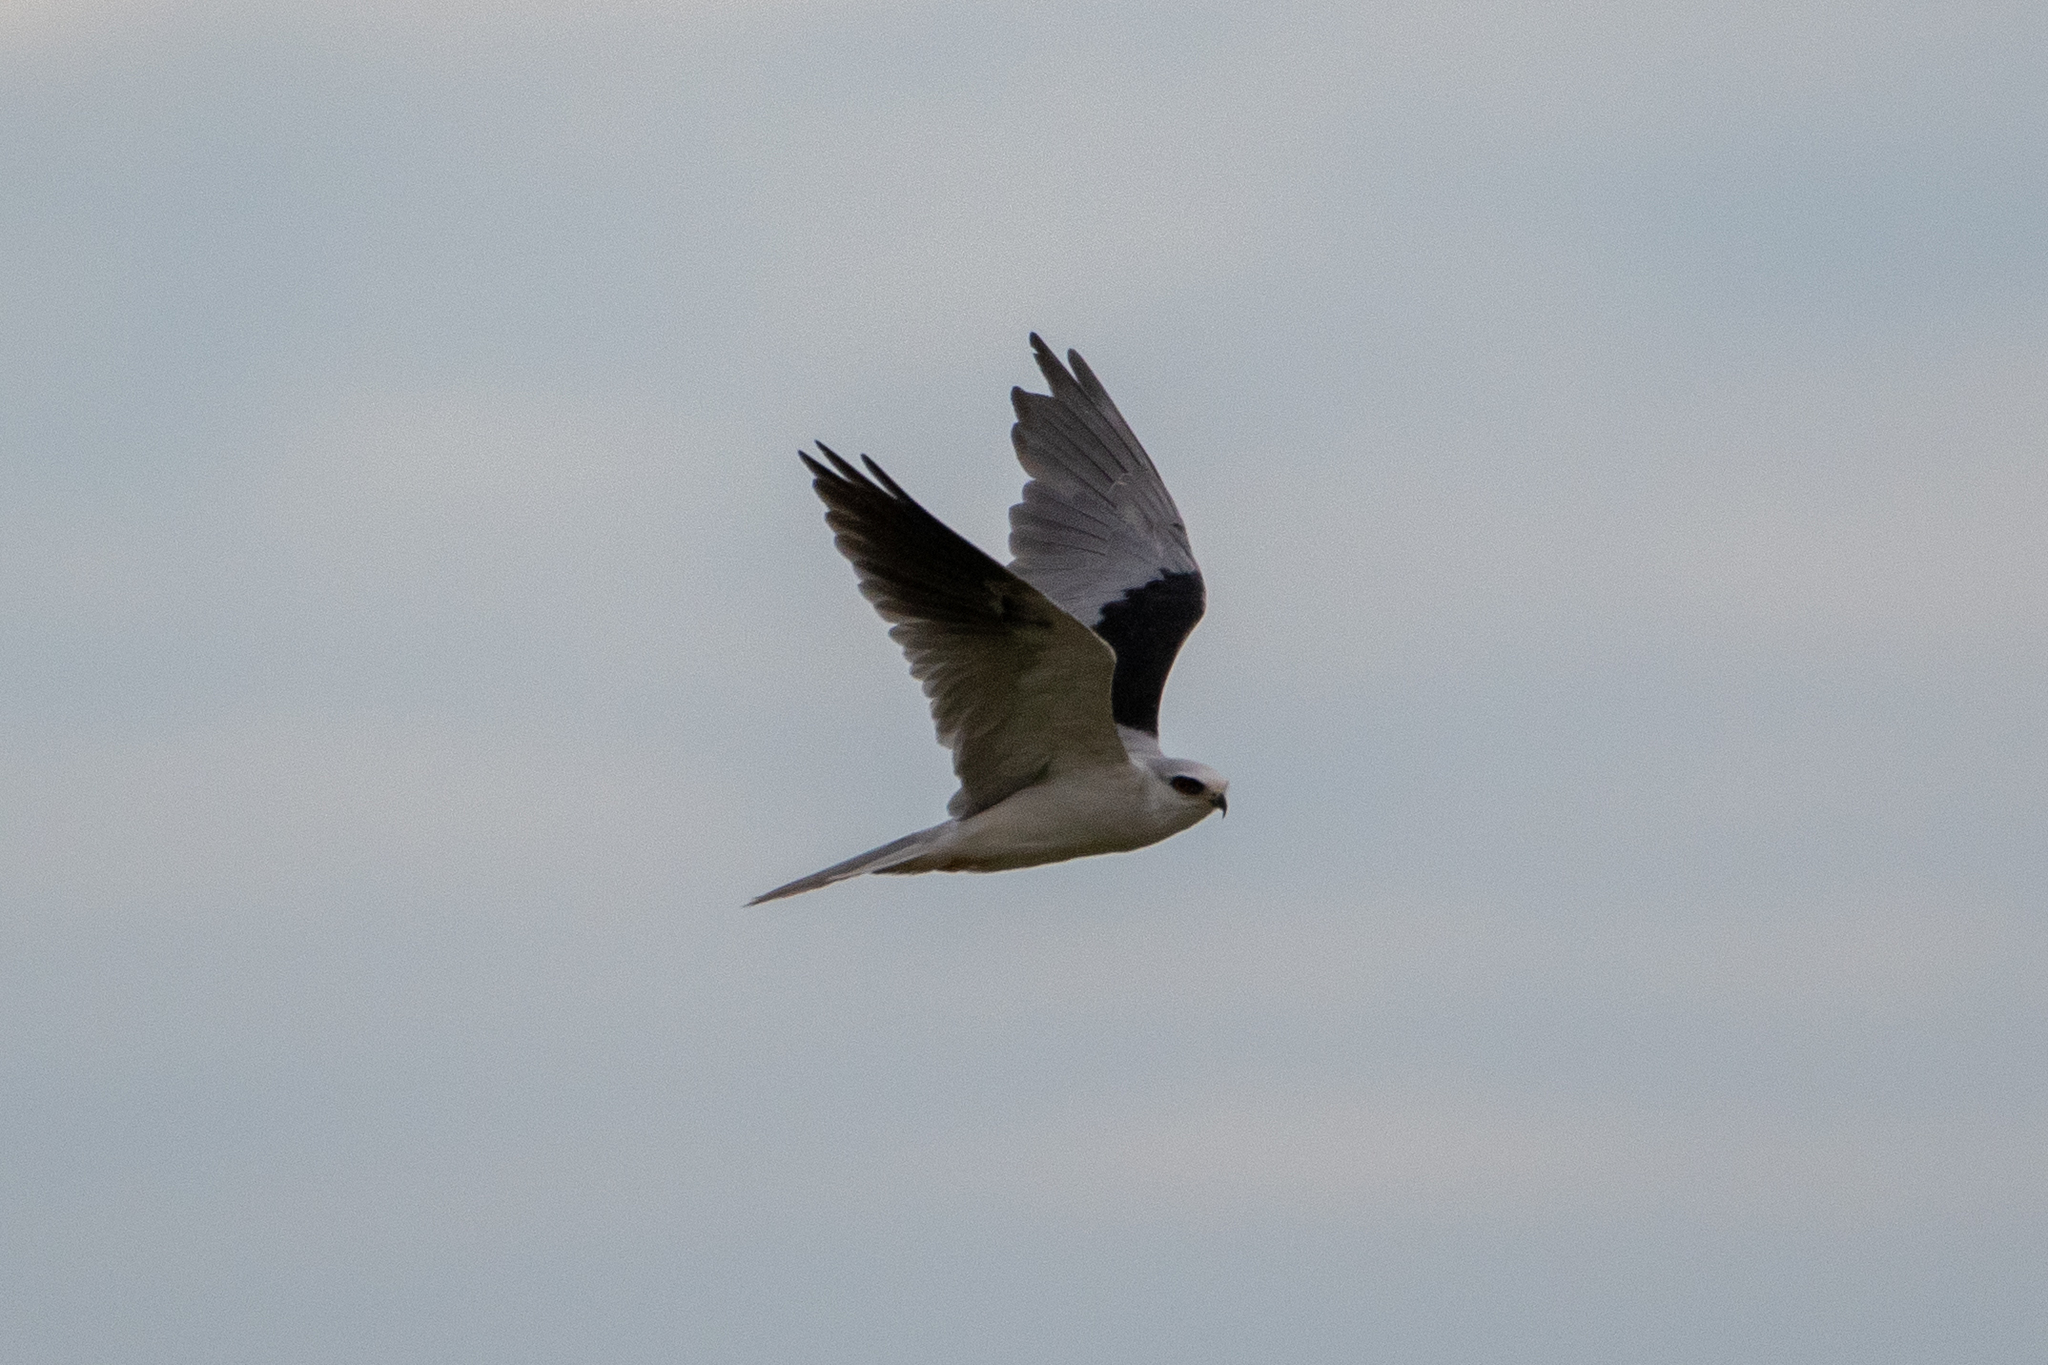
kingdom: Animalia
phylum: Chordata
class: Aves
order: Accipitriformes
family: Accipitridae
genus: Elanus
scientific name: Elanus leucurus
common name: White-tailed kite
